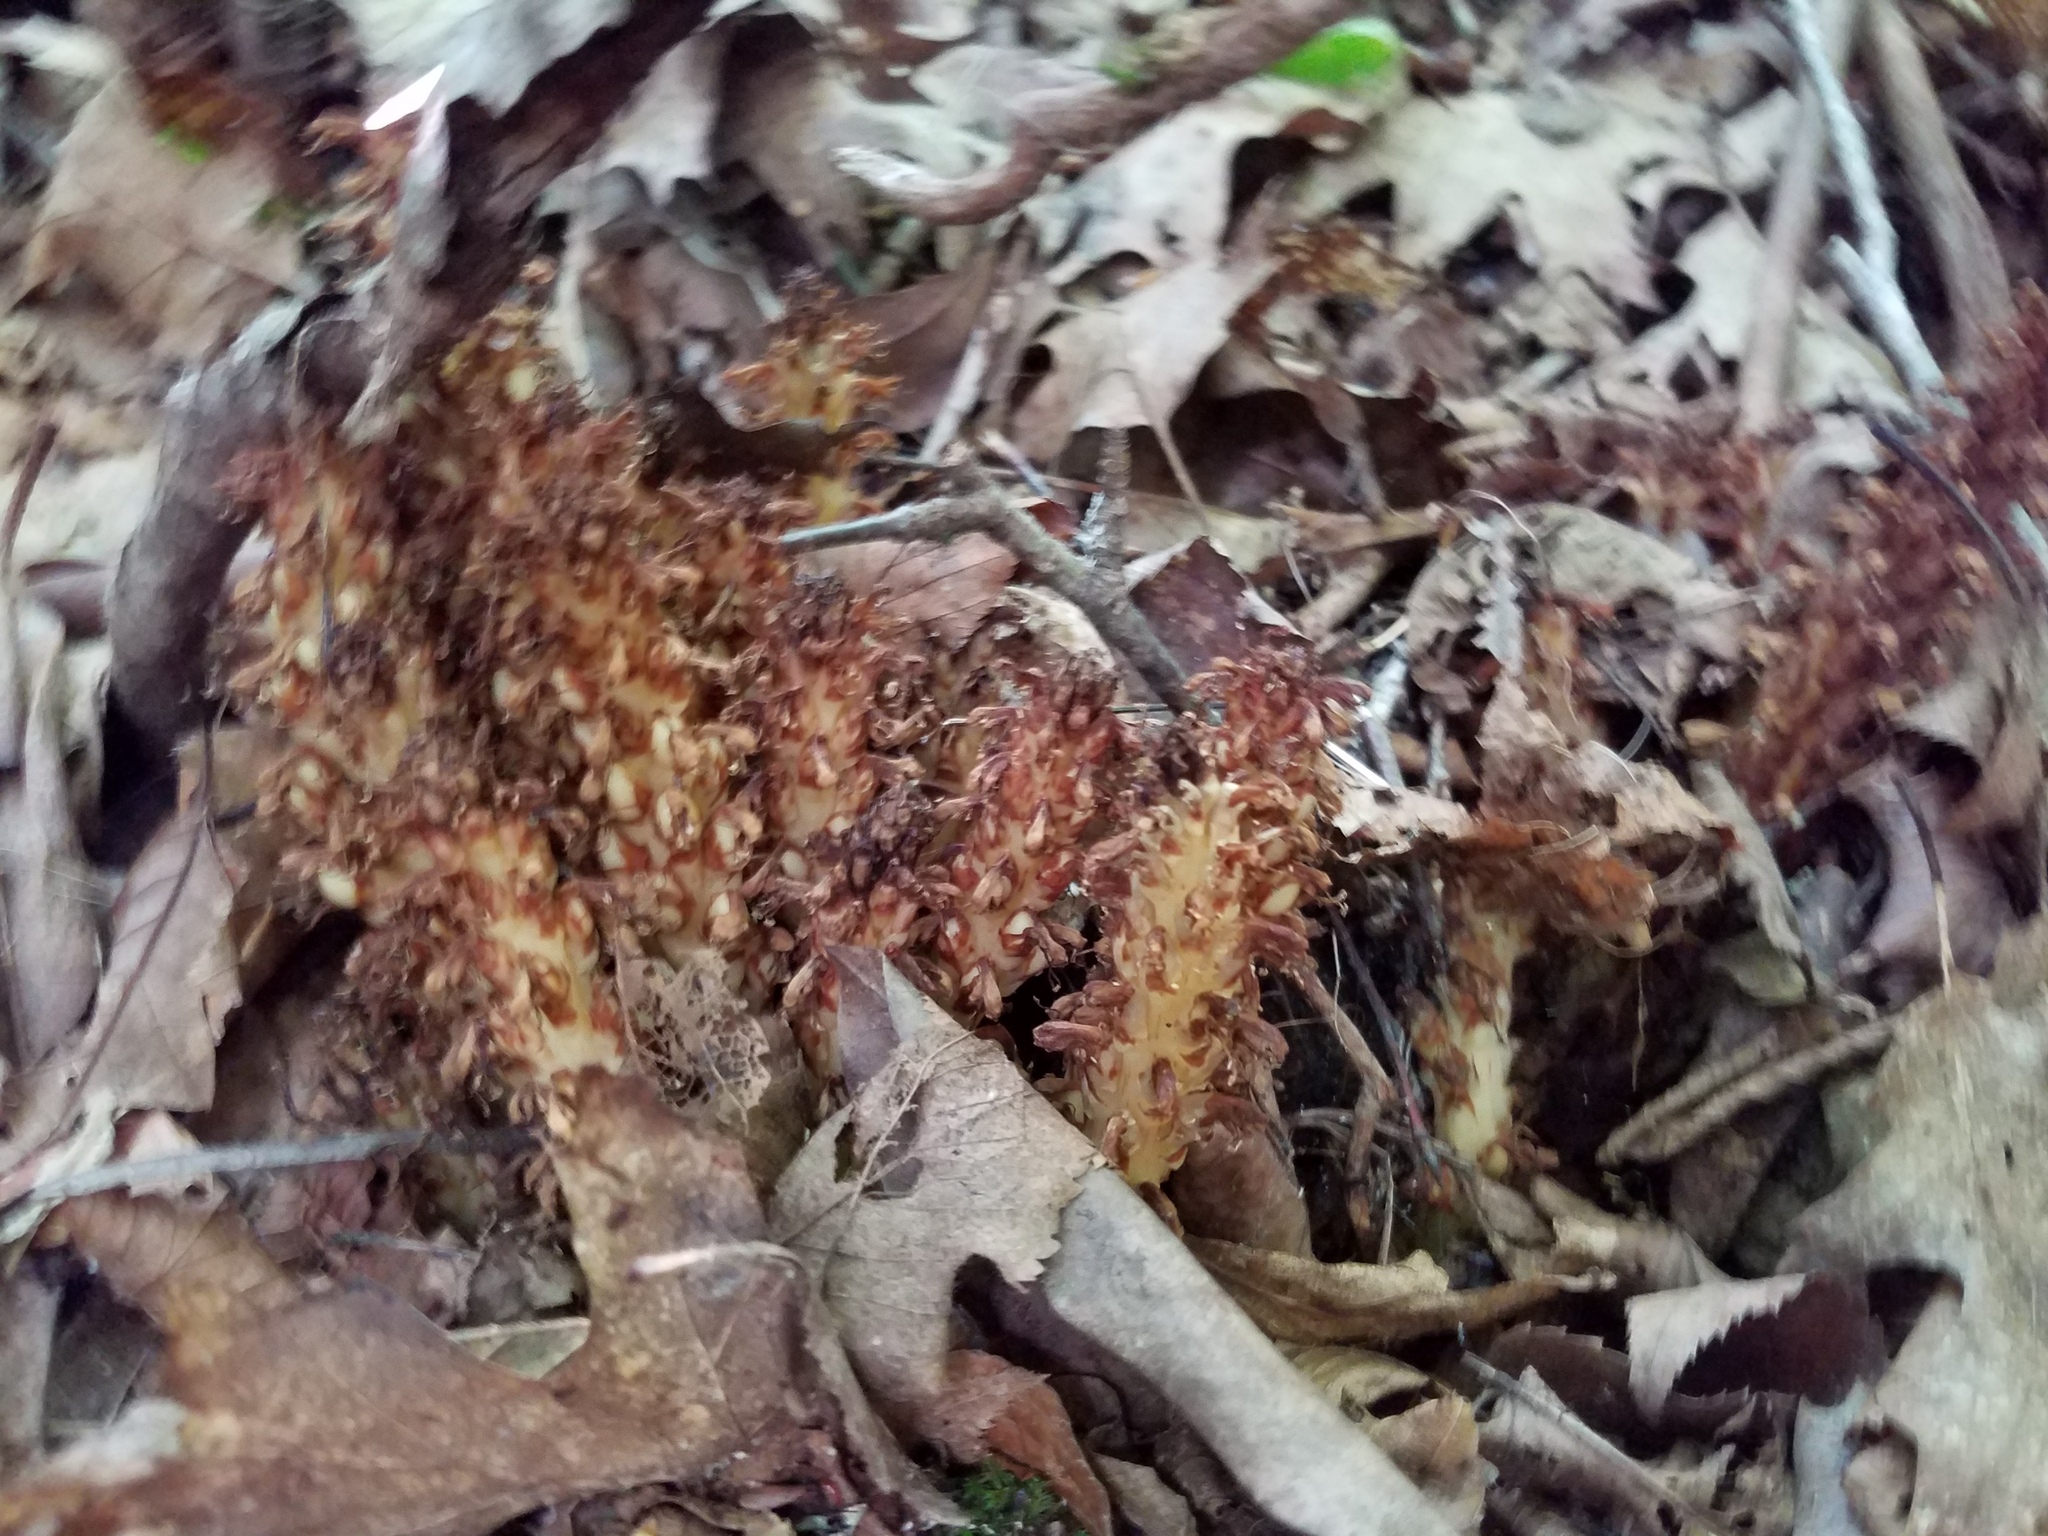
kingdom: Plantae
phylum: Tracheophyta
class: Magnoliopsida
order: Lamiales
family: Orobanchaceae
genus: Conopholis
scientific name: Conopholis americana
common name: American cancer-root
